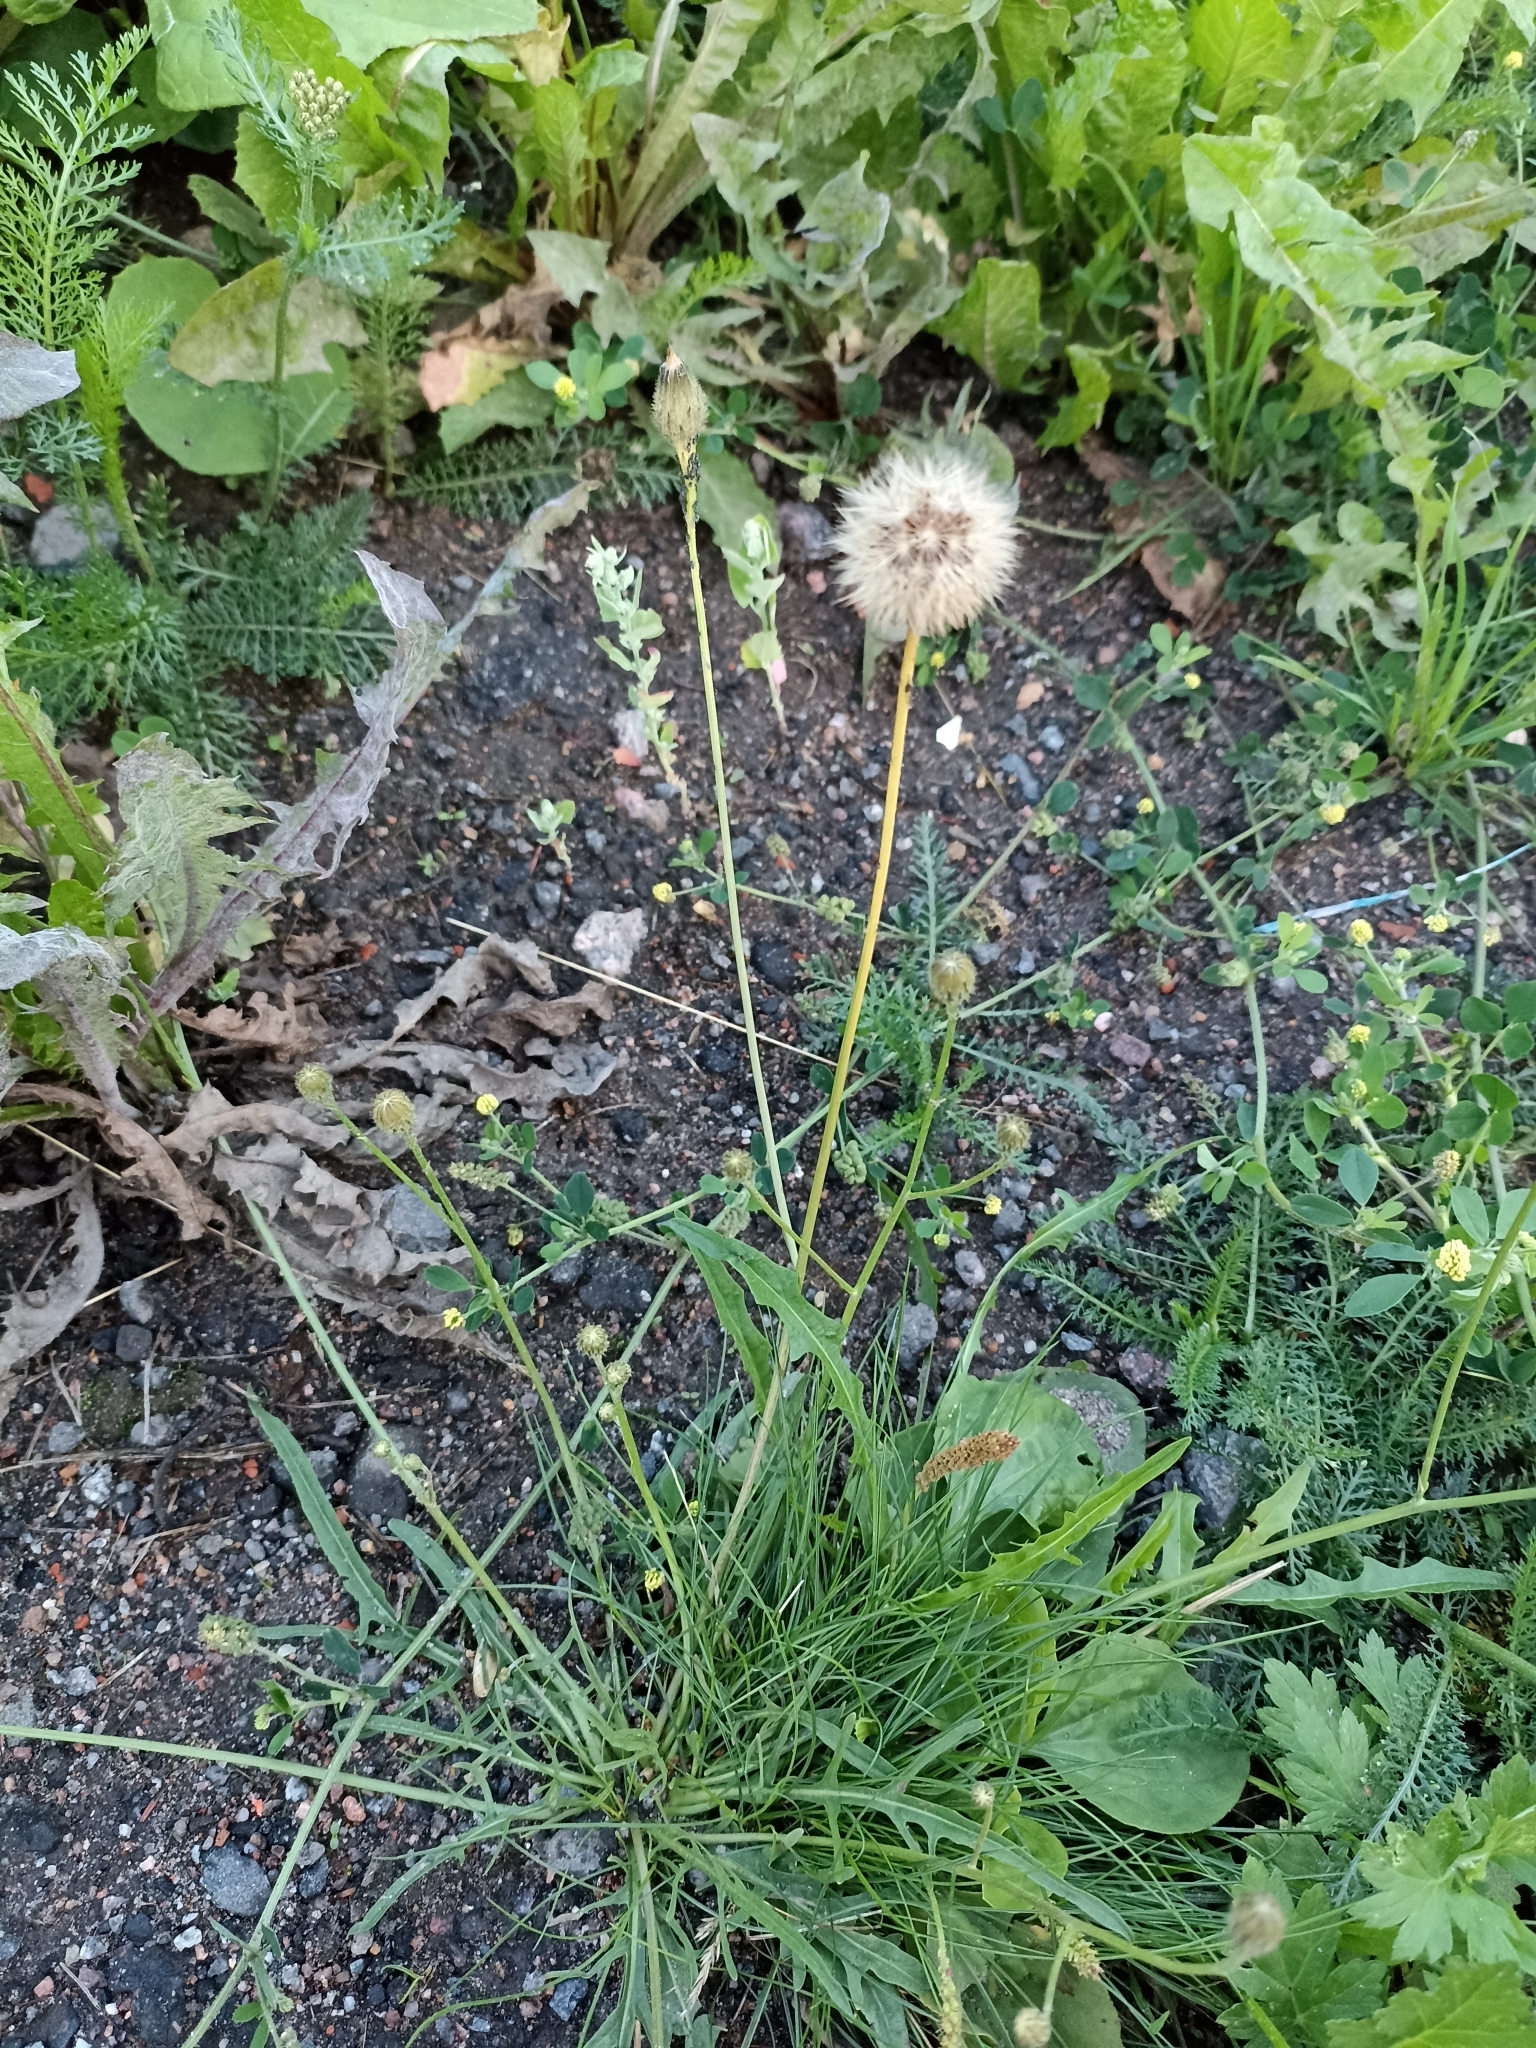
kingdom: Plantae
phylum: Tracheophyta
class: Magnoliopsida
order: Asterales
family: Asteraceae
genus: Scorzoneroides
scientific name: Scorzoneroides autumnalis
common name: Autumn hawkbit
